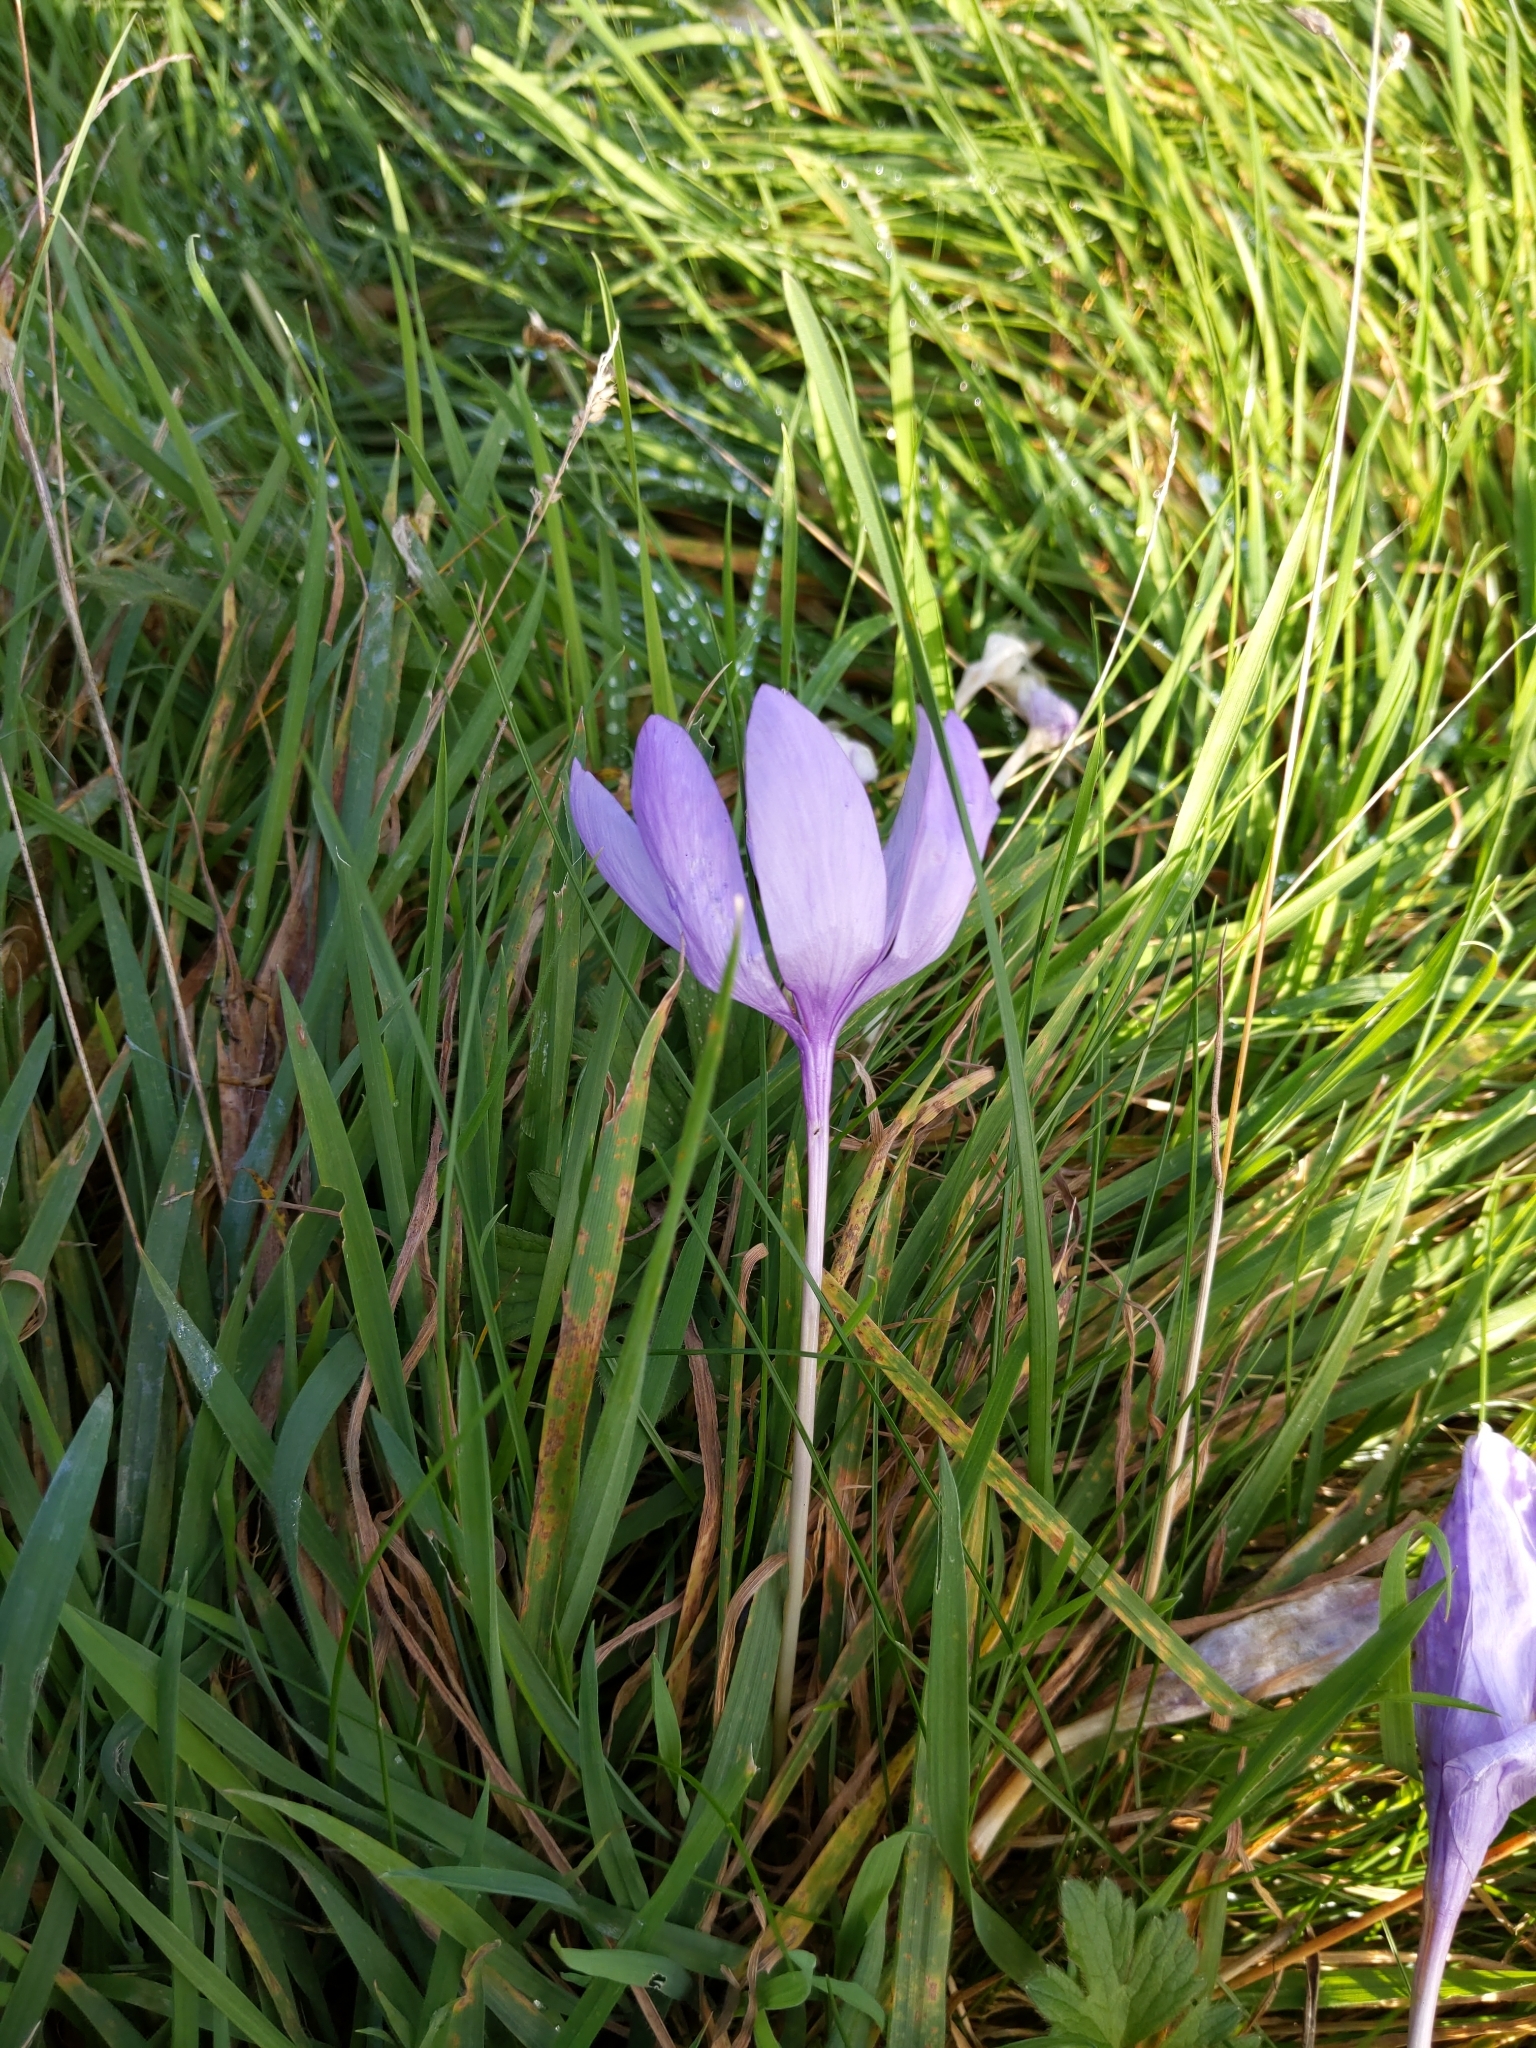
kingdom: Plantae
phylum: Tracheophyta
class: Liliopsida
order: Asparagales
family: Iridaceae
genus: Crocus
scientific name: Crocus nudiflorus
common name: Autumn crocus
